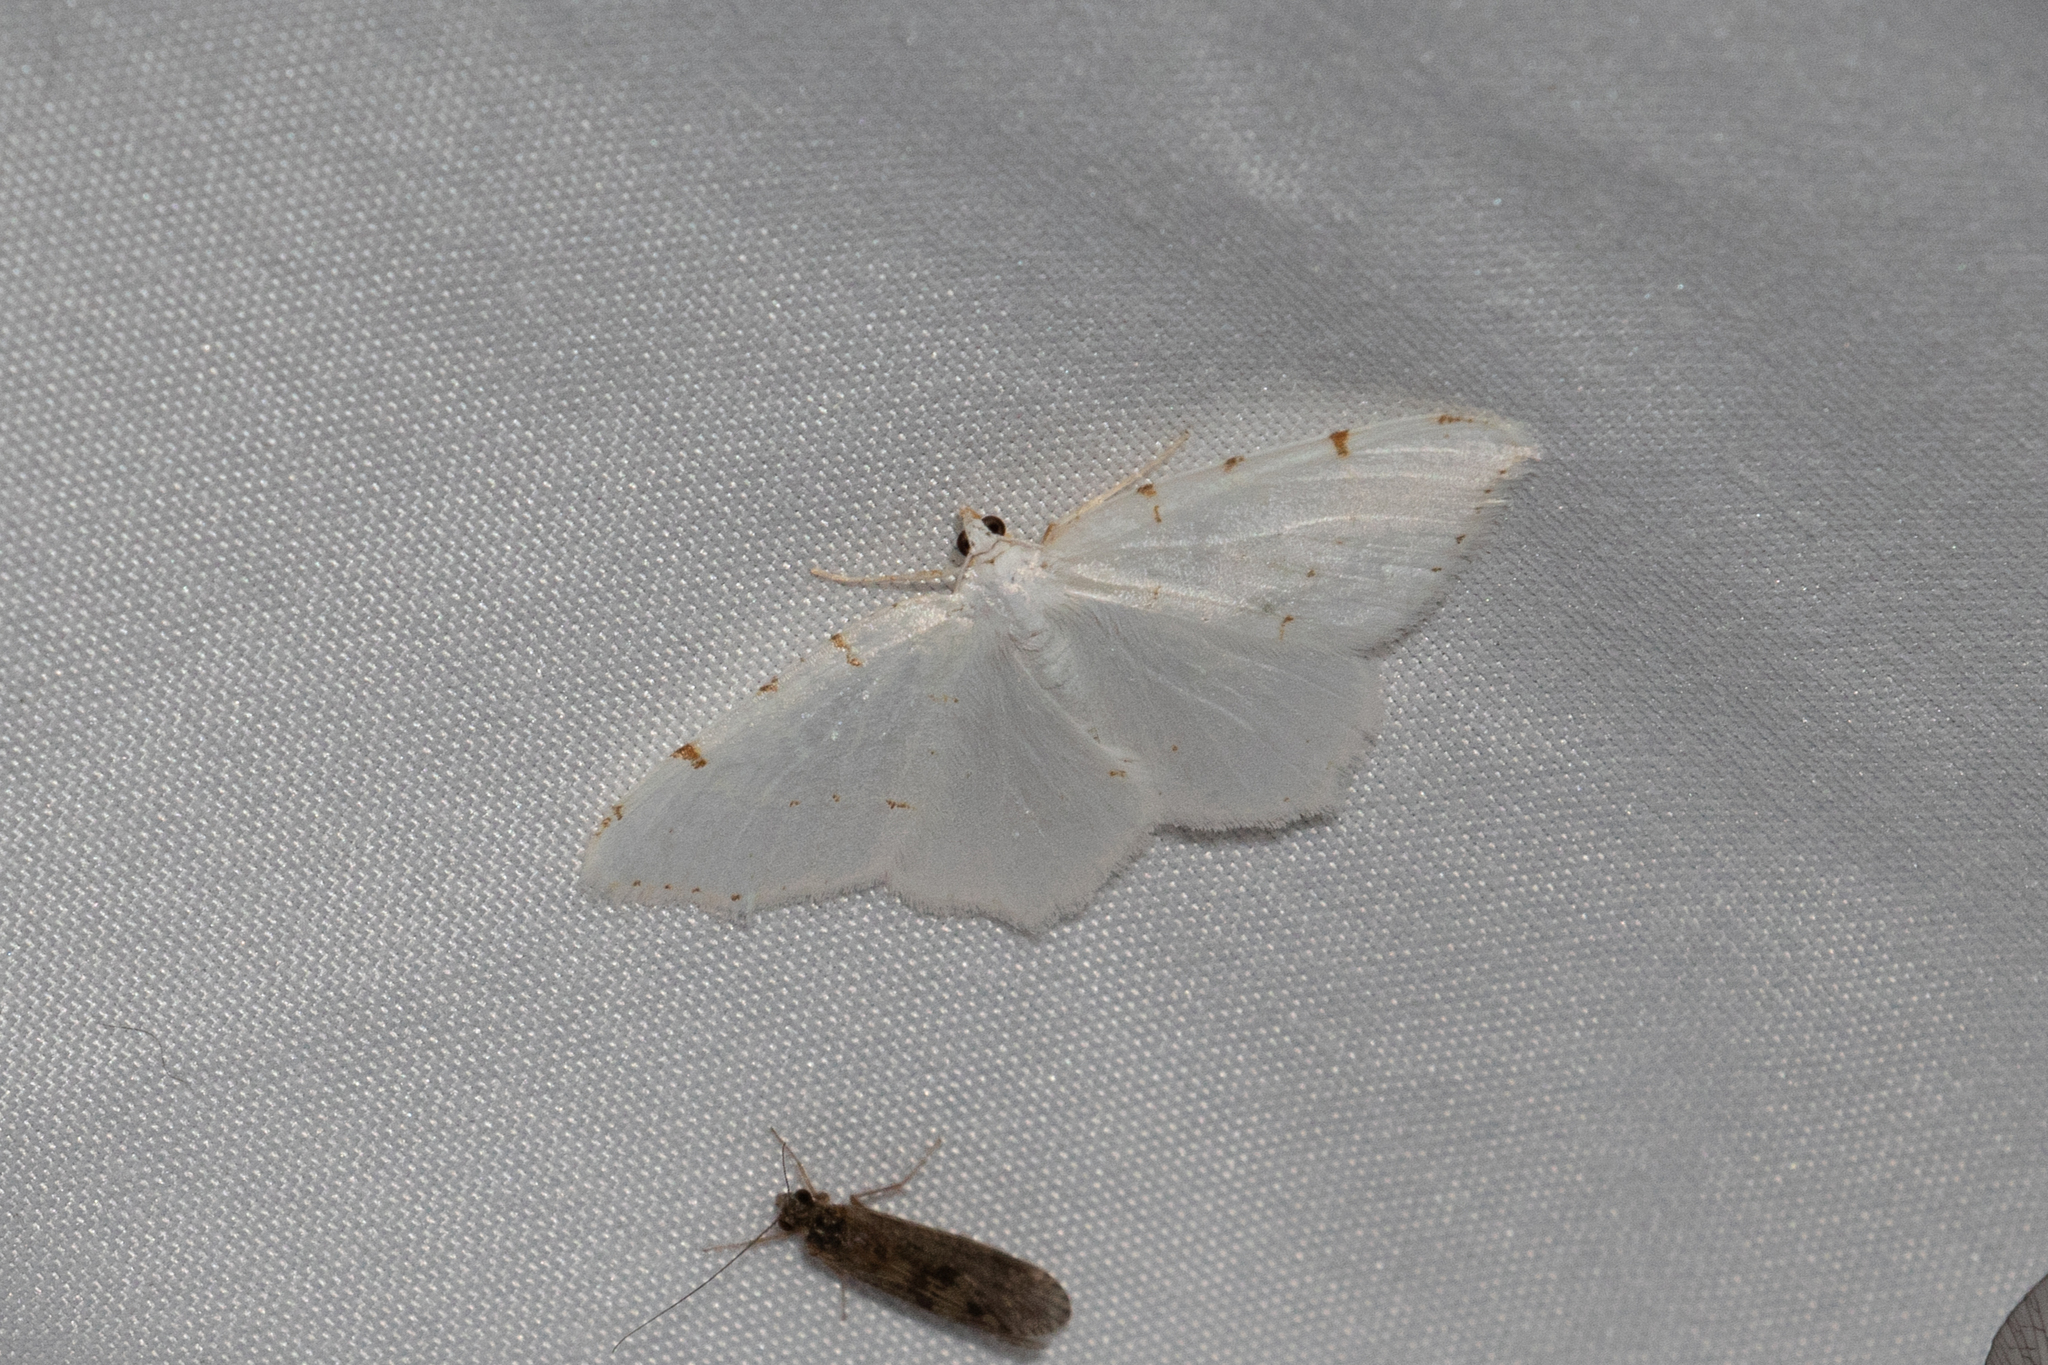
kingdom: Animalia
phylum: Arthropoda
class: Insecta
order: Lepidoptera
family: Geometridae
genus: Macaria
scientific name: Macaria pustularia
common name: Lesser maple spanworm moth
